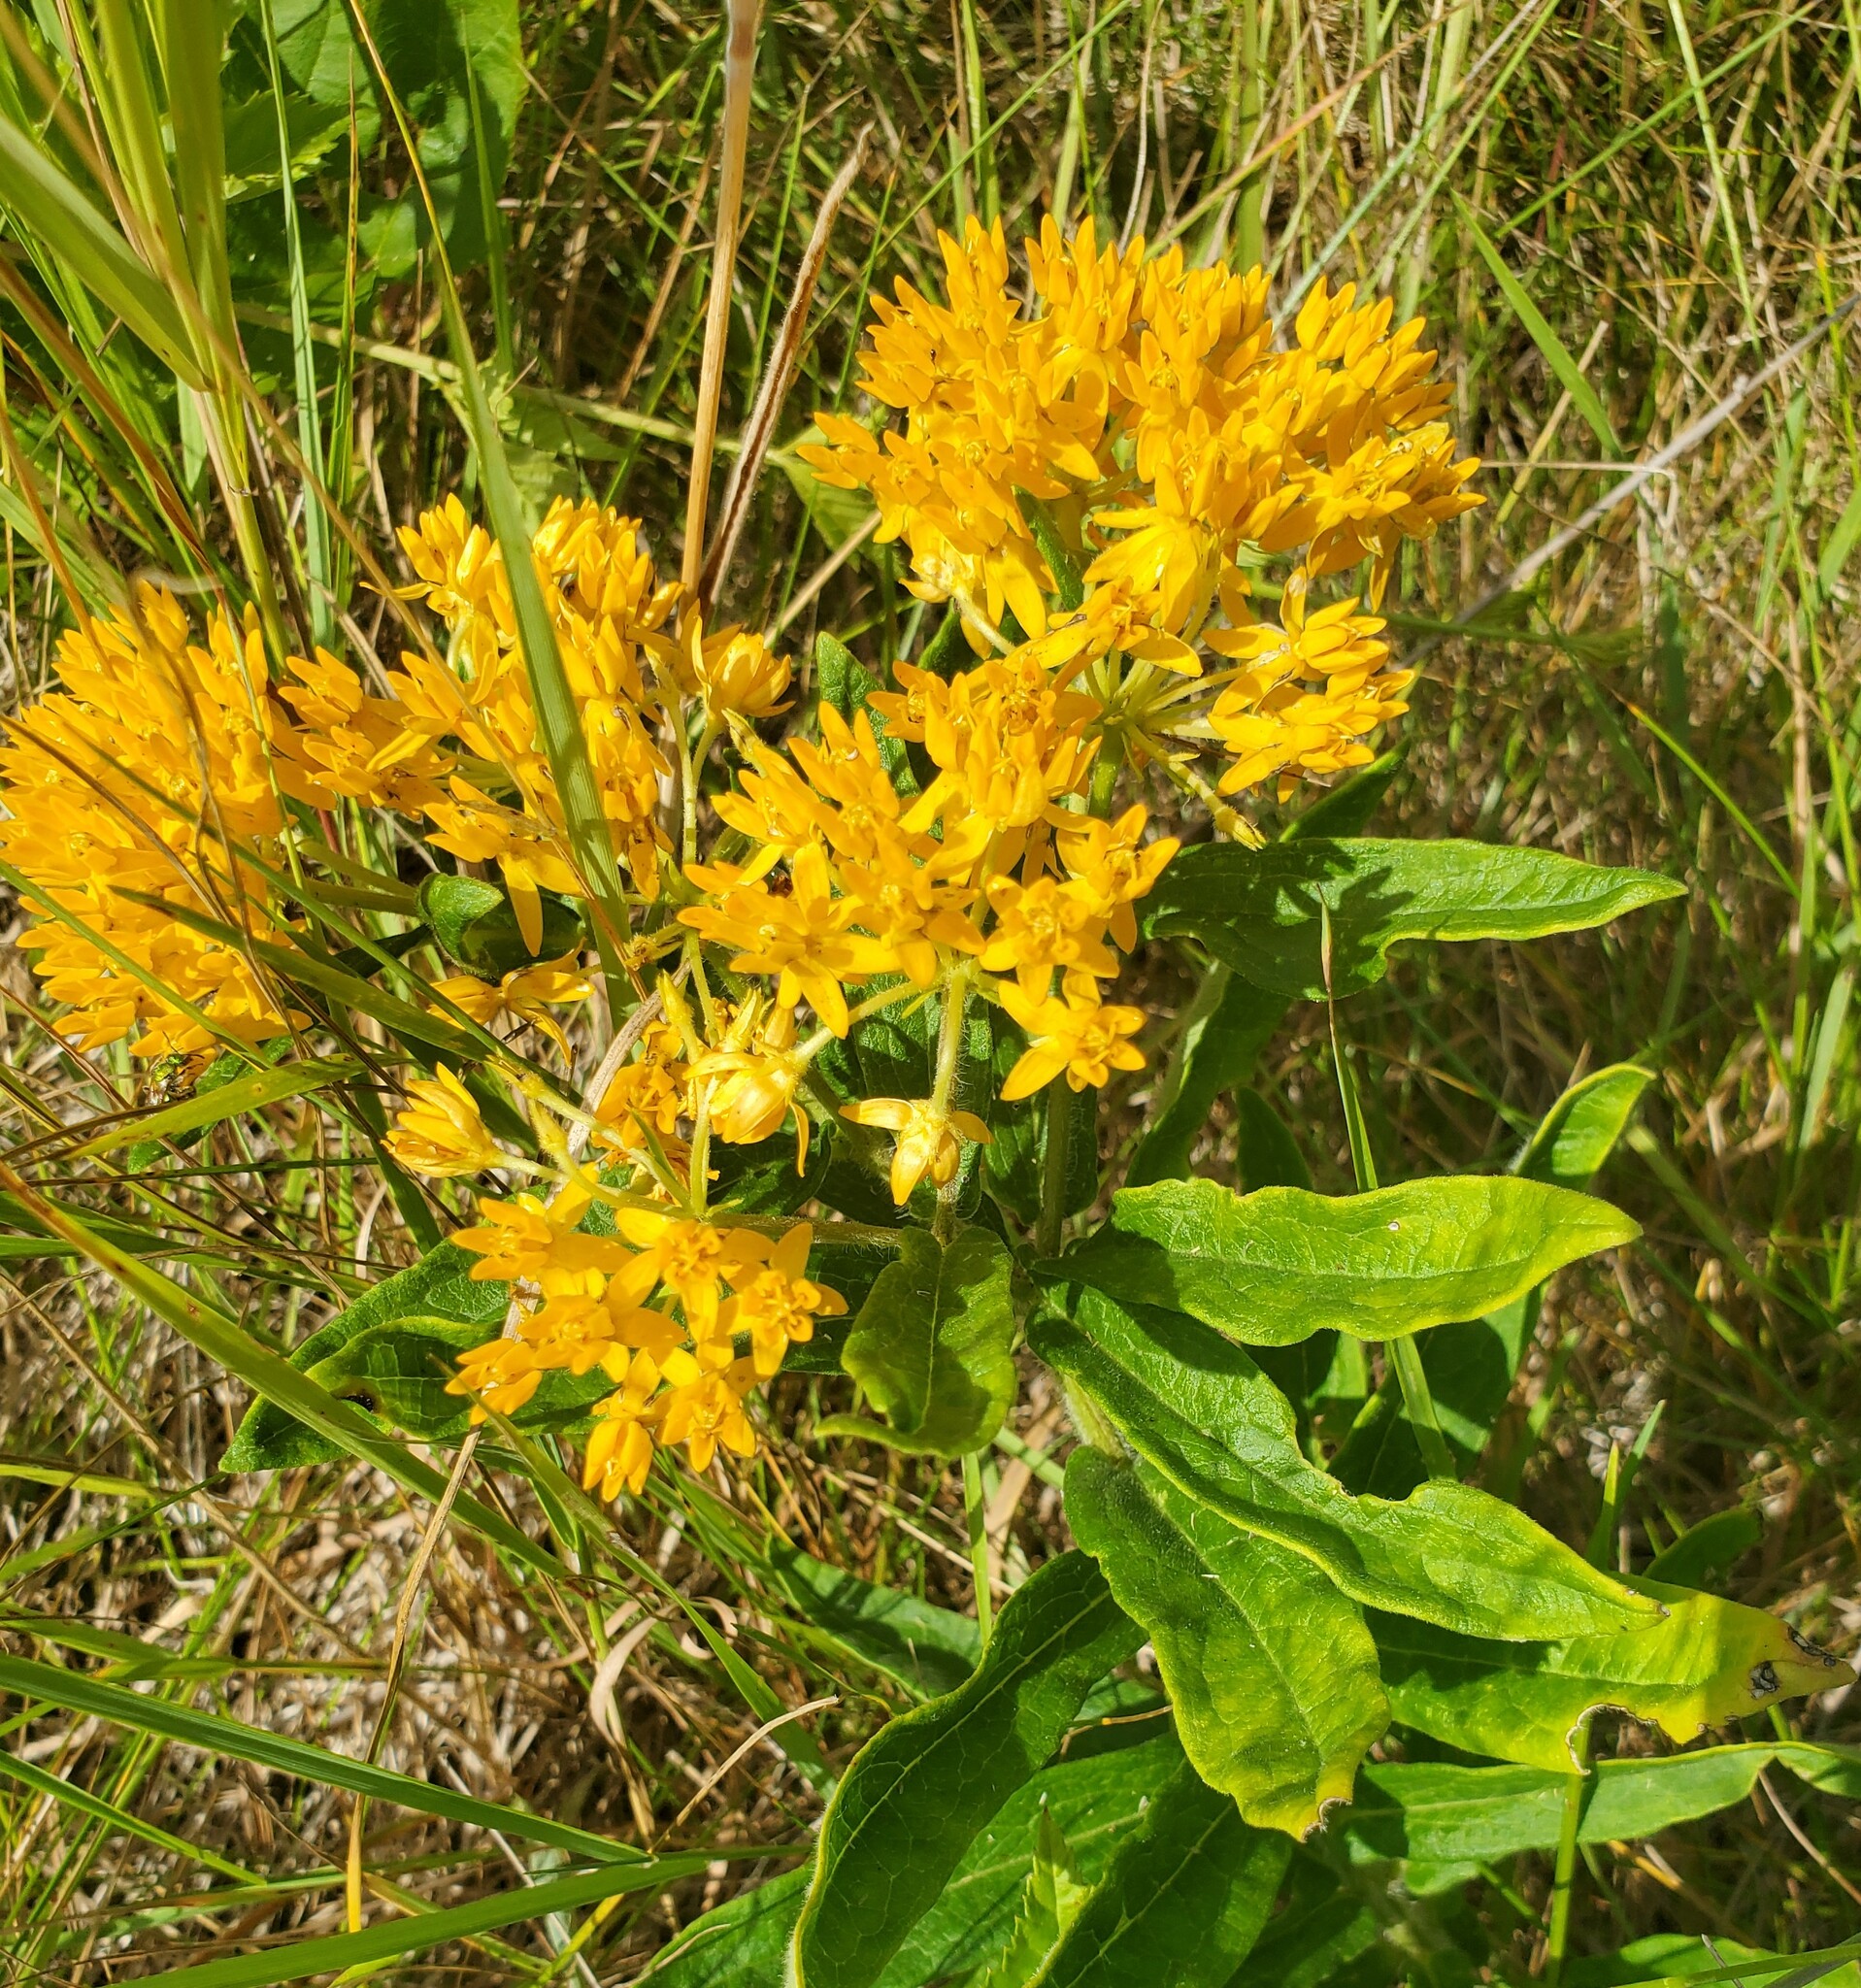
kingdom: Plantae
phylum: Tracheophyta
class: Magnoliopsida
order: Gentianales
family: Apocynaceae
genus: Asclepias
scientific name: Asclepias tuberosa
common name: Butterfly milkweed
